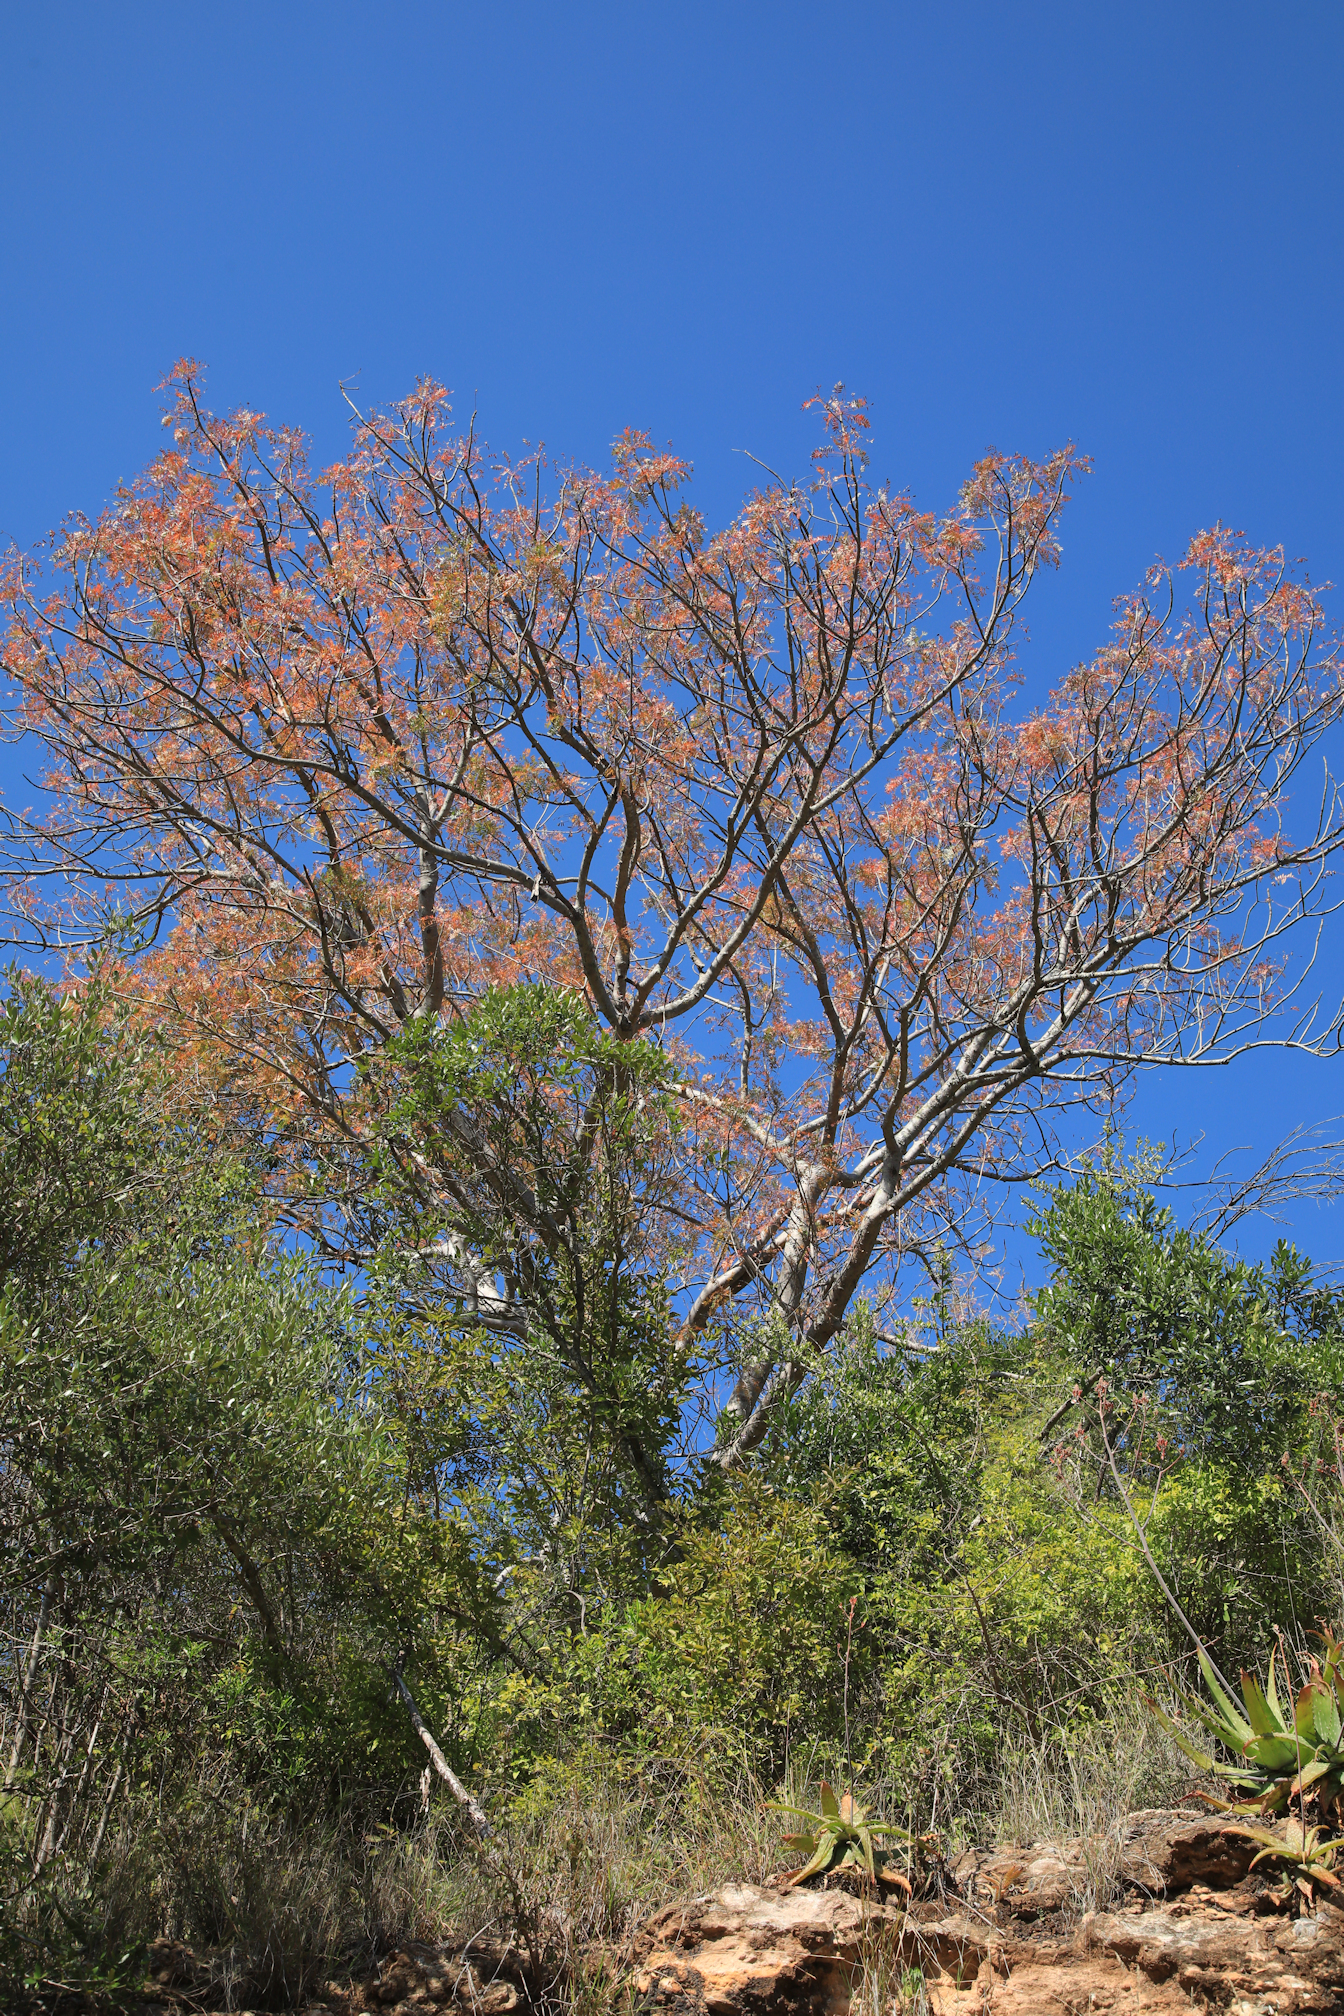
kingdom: Plantae
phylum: Tracheophyta
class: Magnoliopsida
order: Sapindales
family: Kirkiaceae
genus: Kirkia
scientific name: Kirkia wilmsii
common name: Mountain seringa
